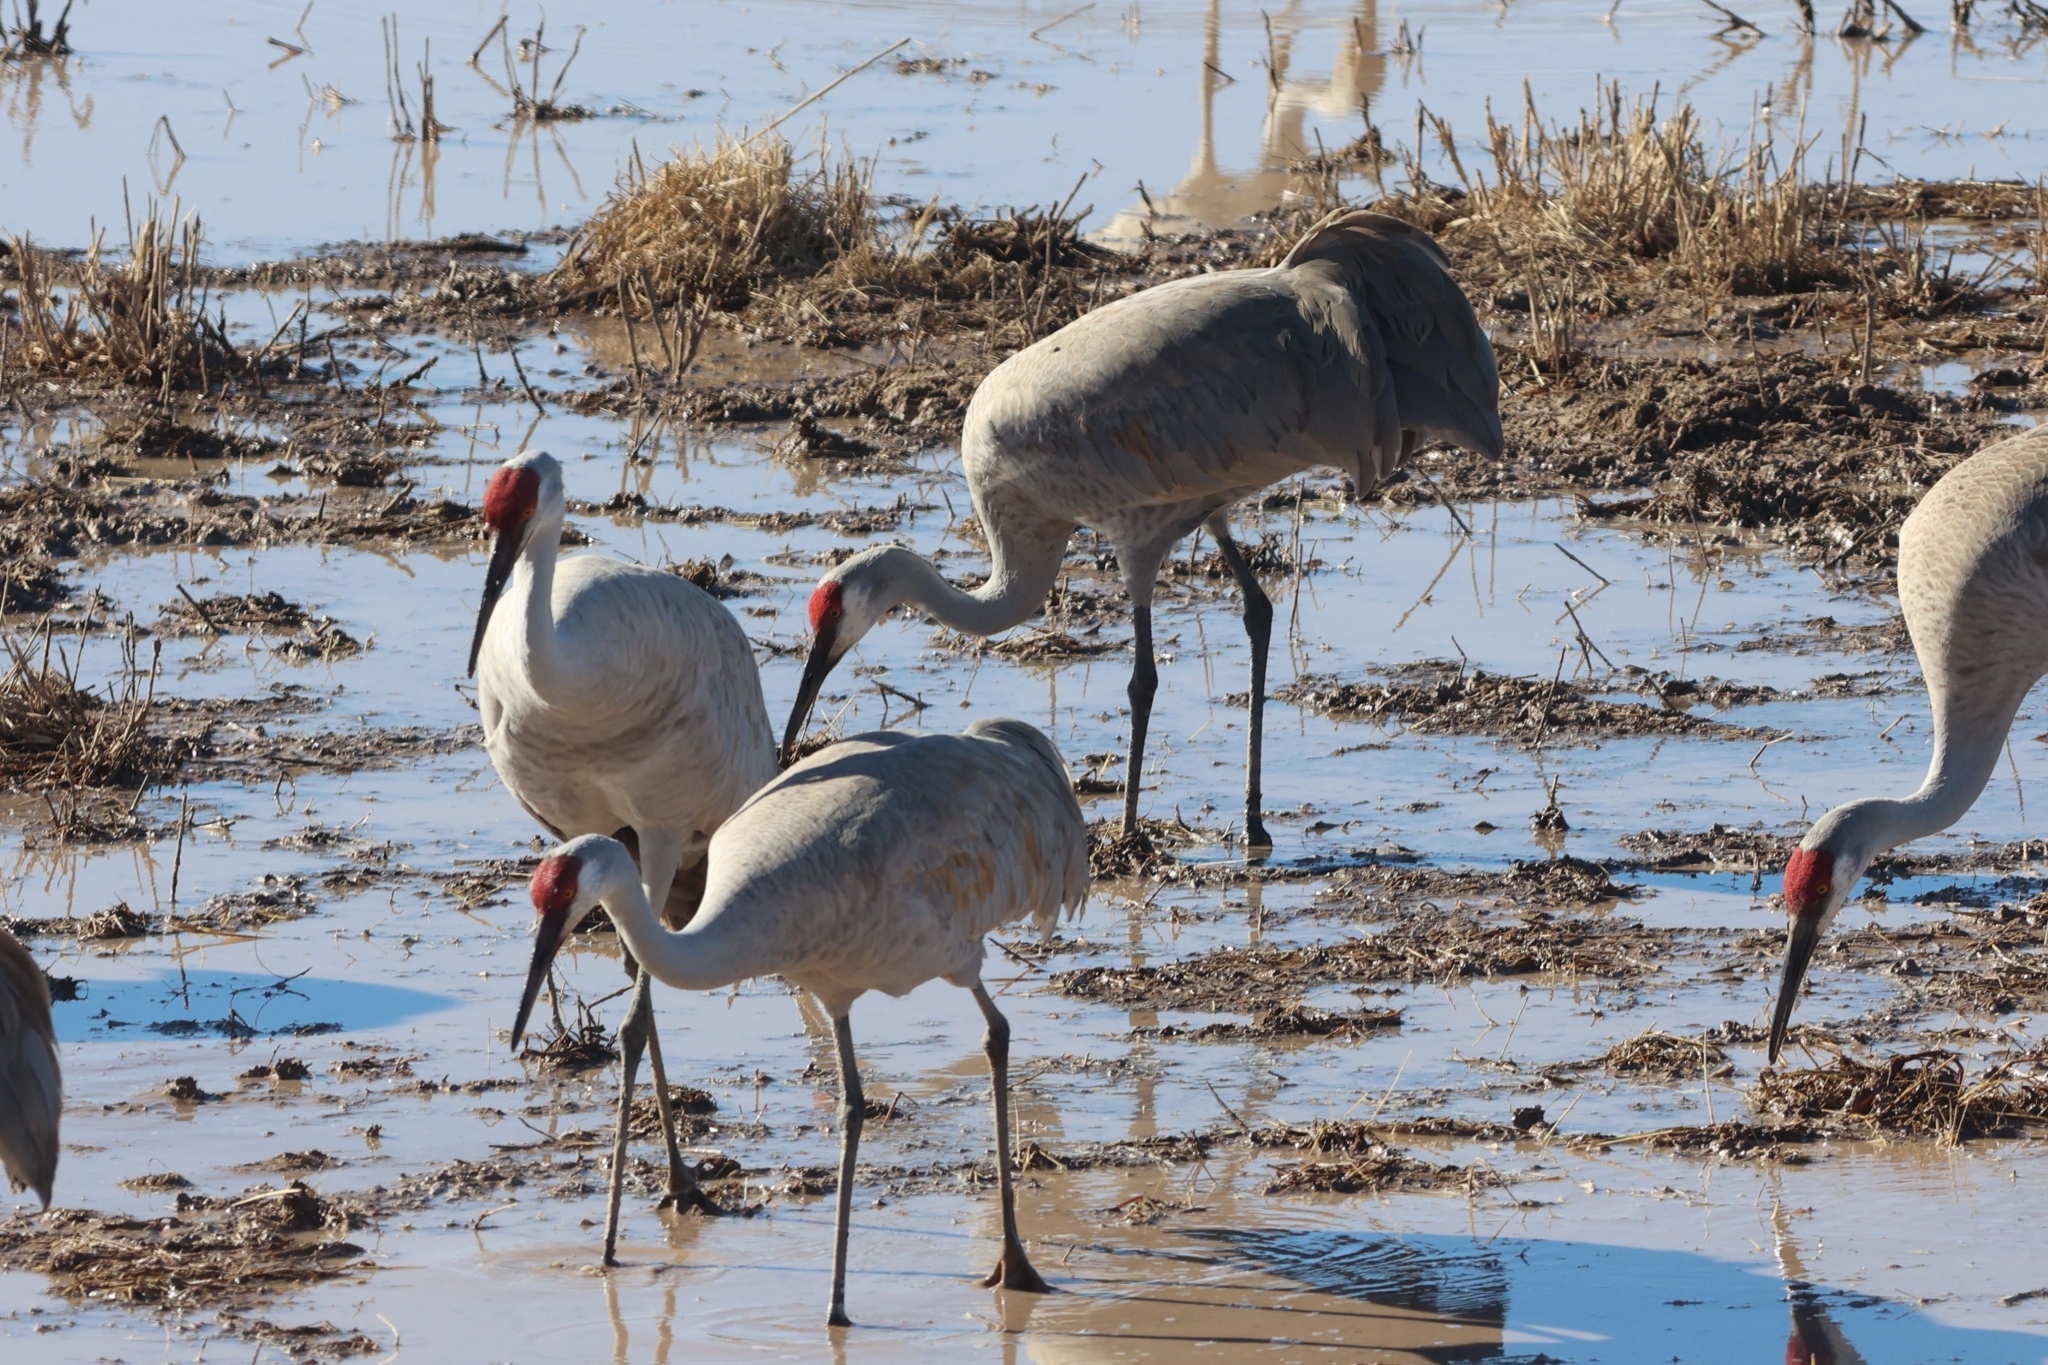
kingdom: Animalia
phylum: Chordata
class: Aves
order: Gruiformes
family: Gruidae
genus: Grus
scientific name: Grus canadensis
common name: Sandhill crane
